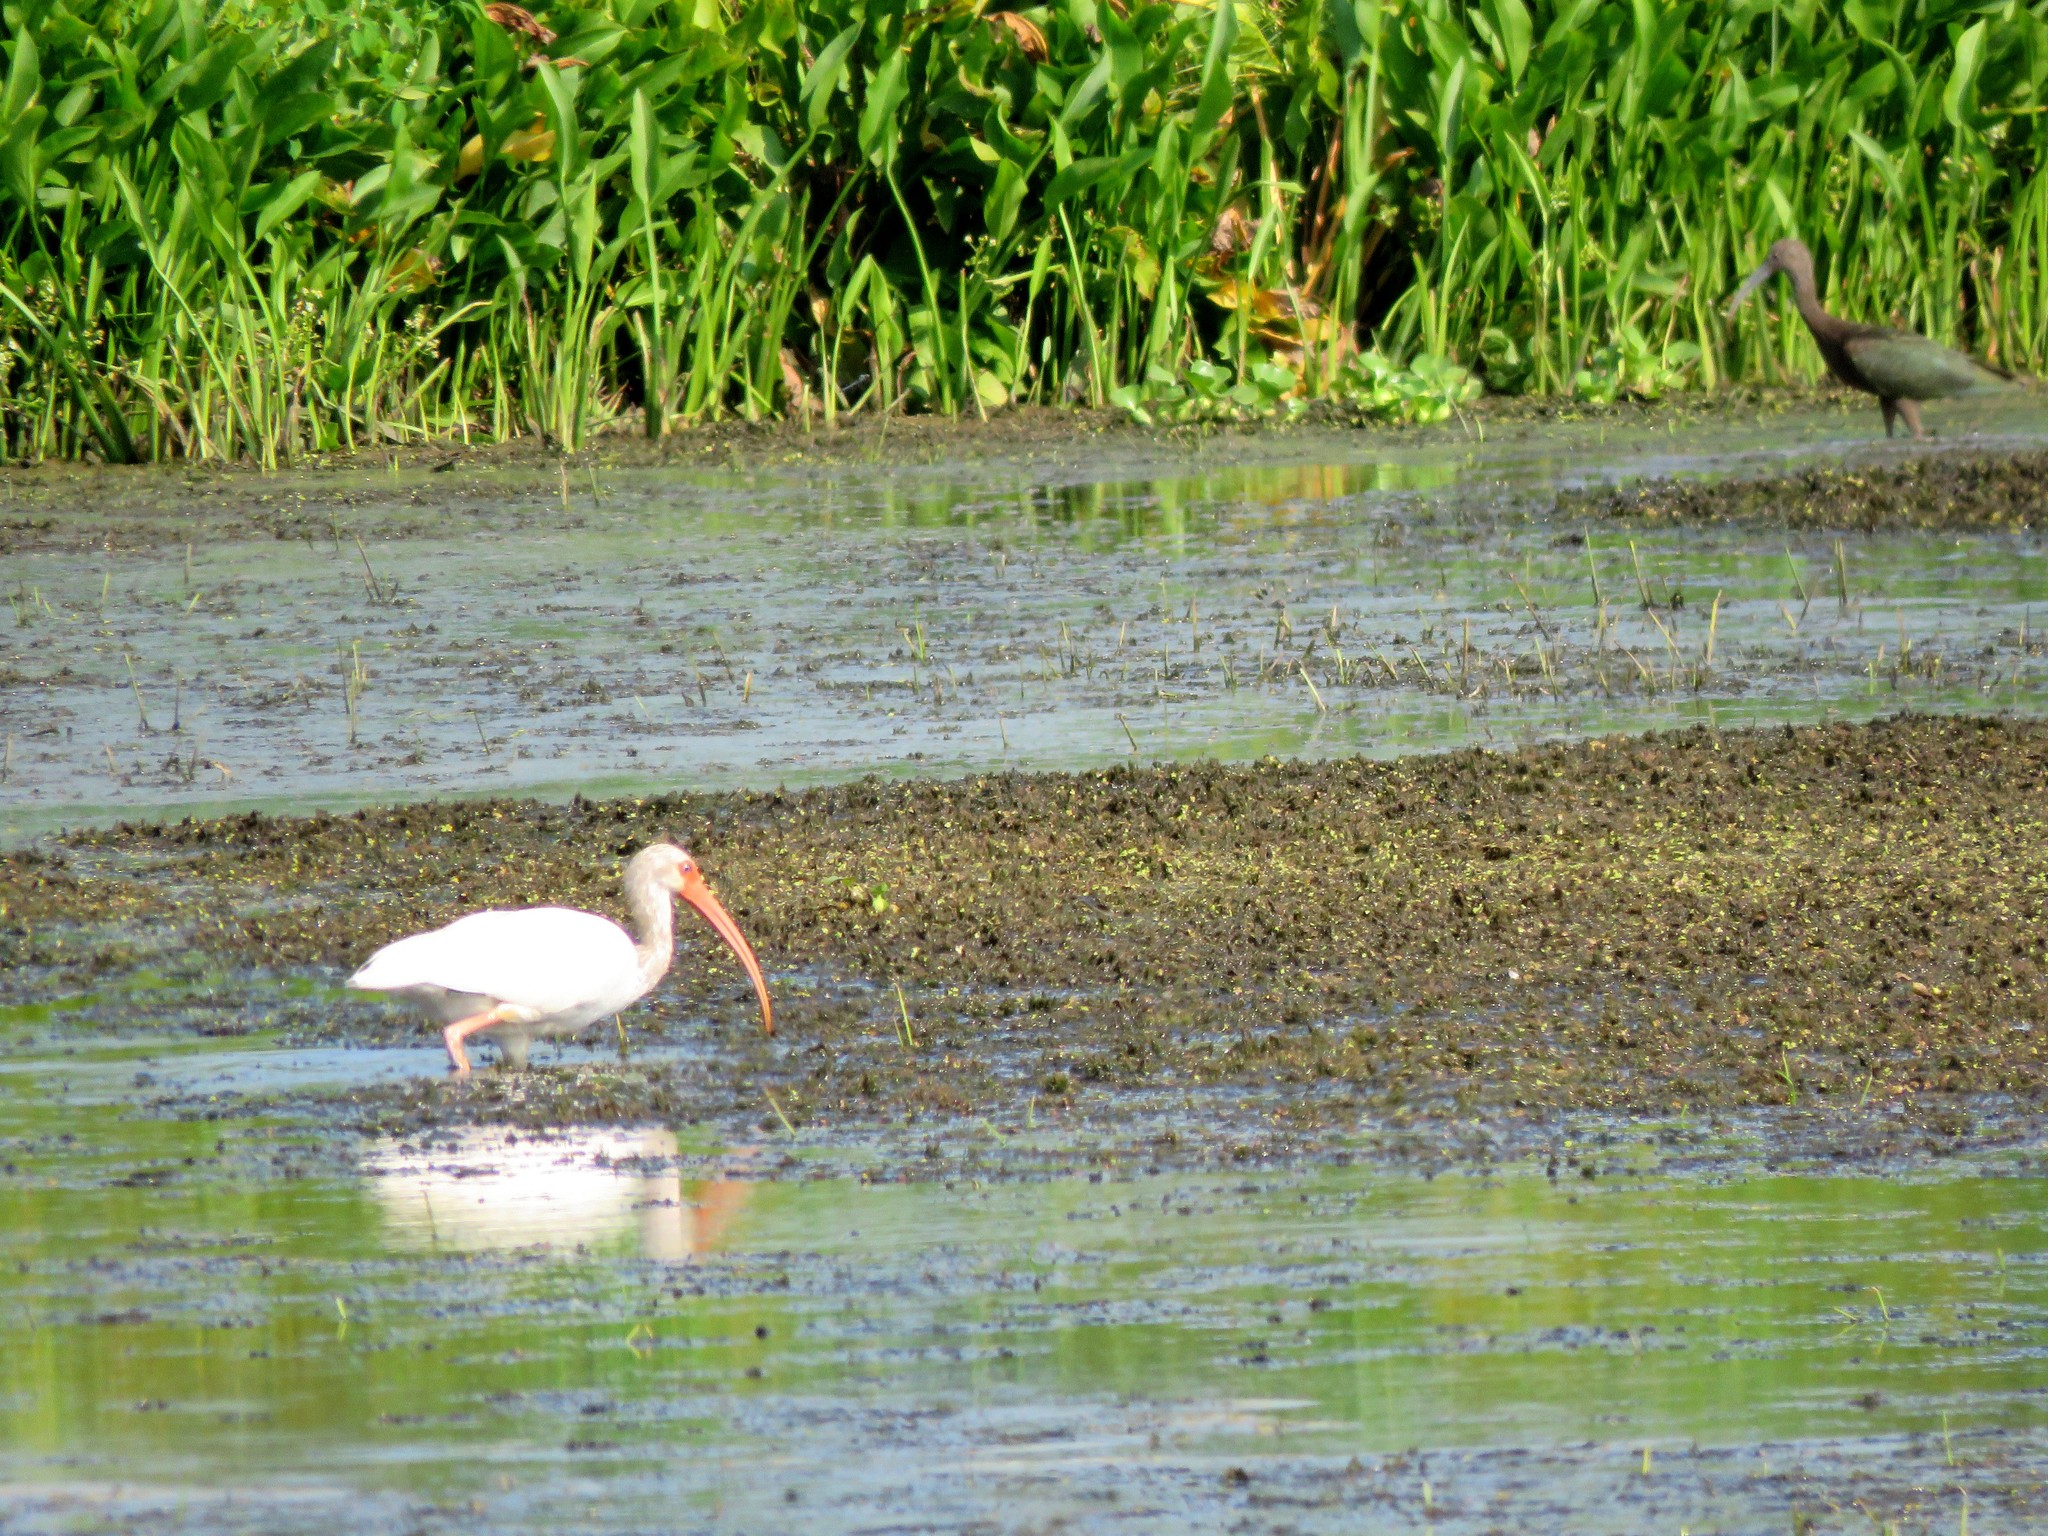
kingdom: Animalia
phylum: Chordata
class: Aves
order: Pelecaniformes
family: Threskiornithidae
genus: Eudocimus
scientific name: Eudocimus albus
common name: White ibis
